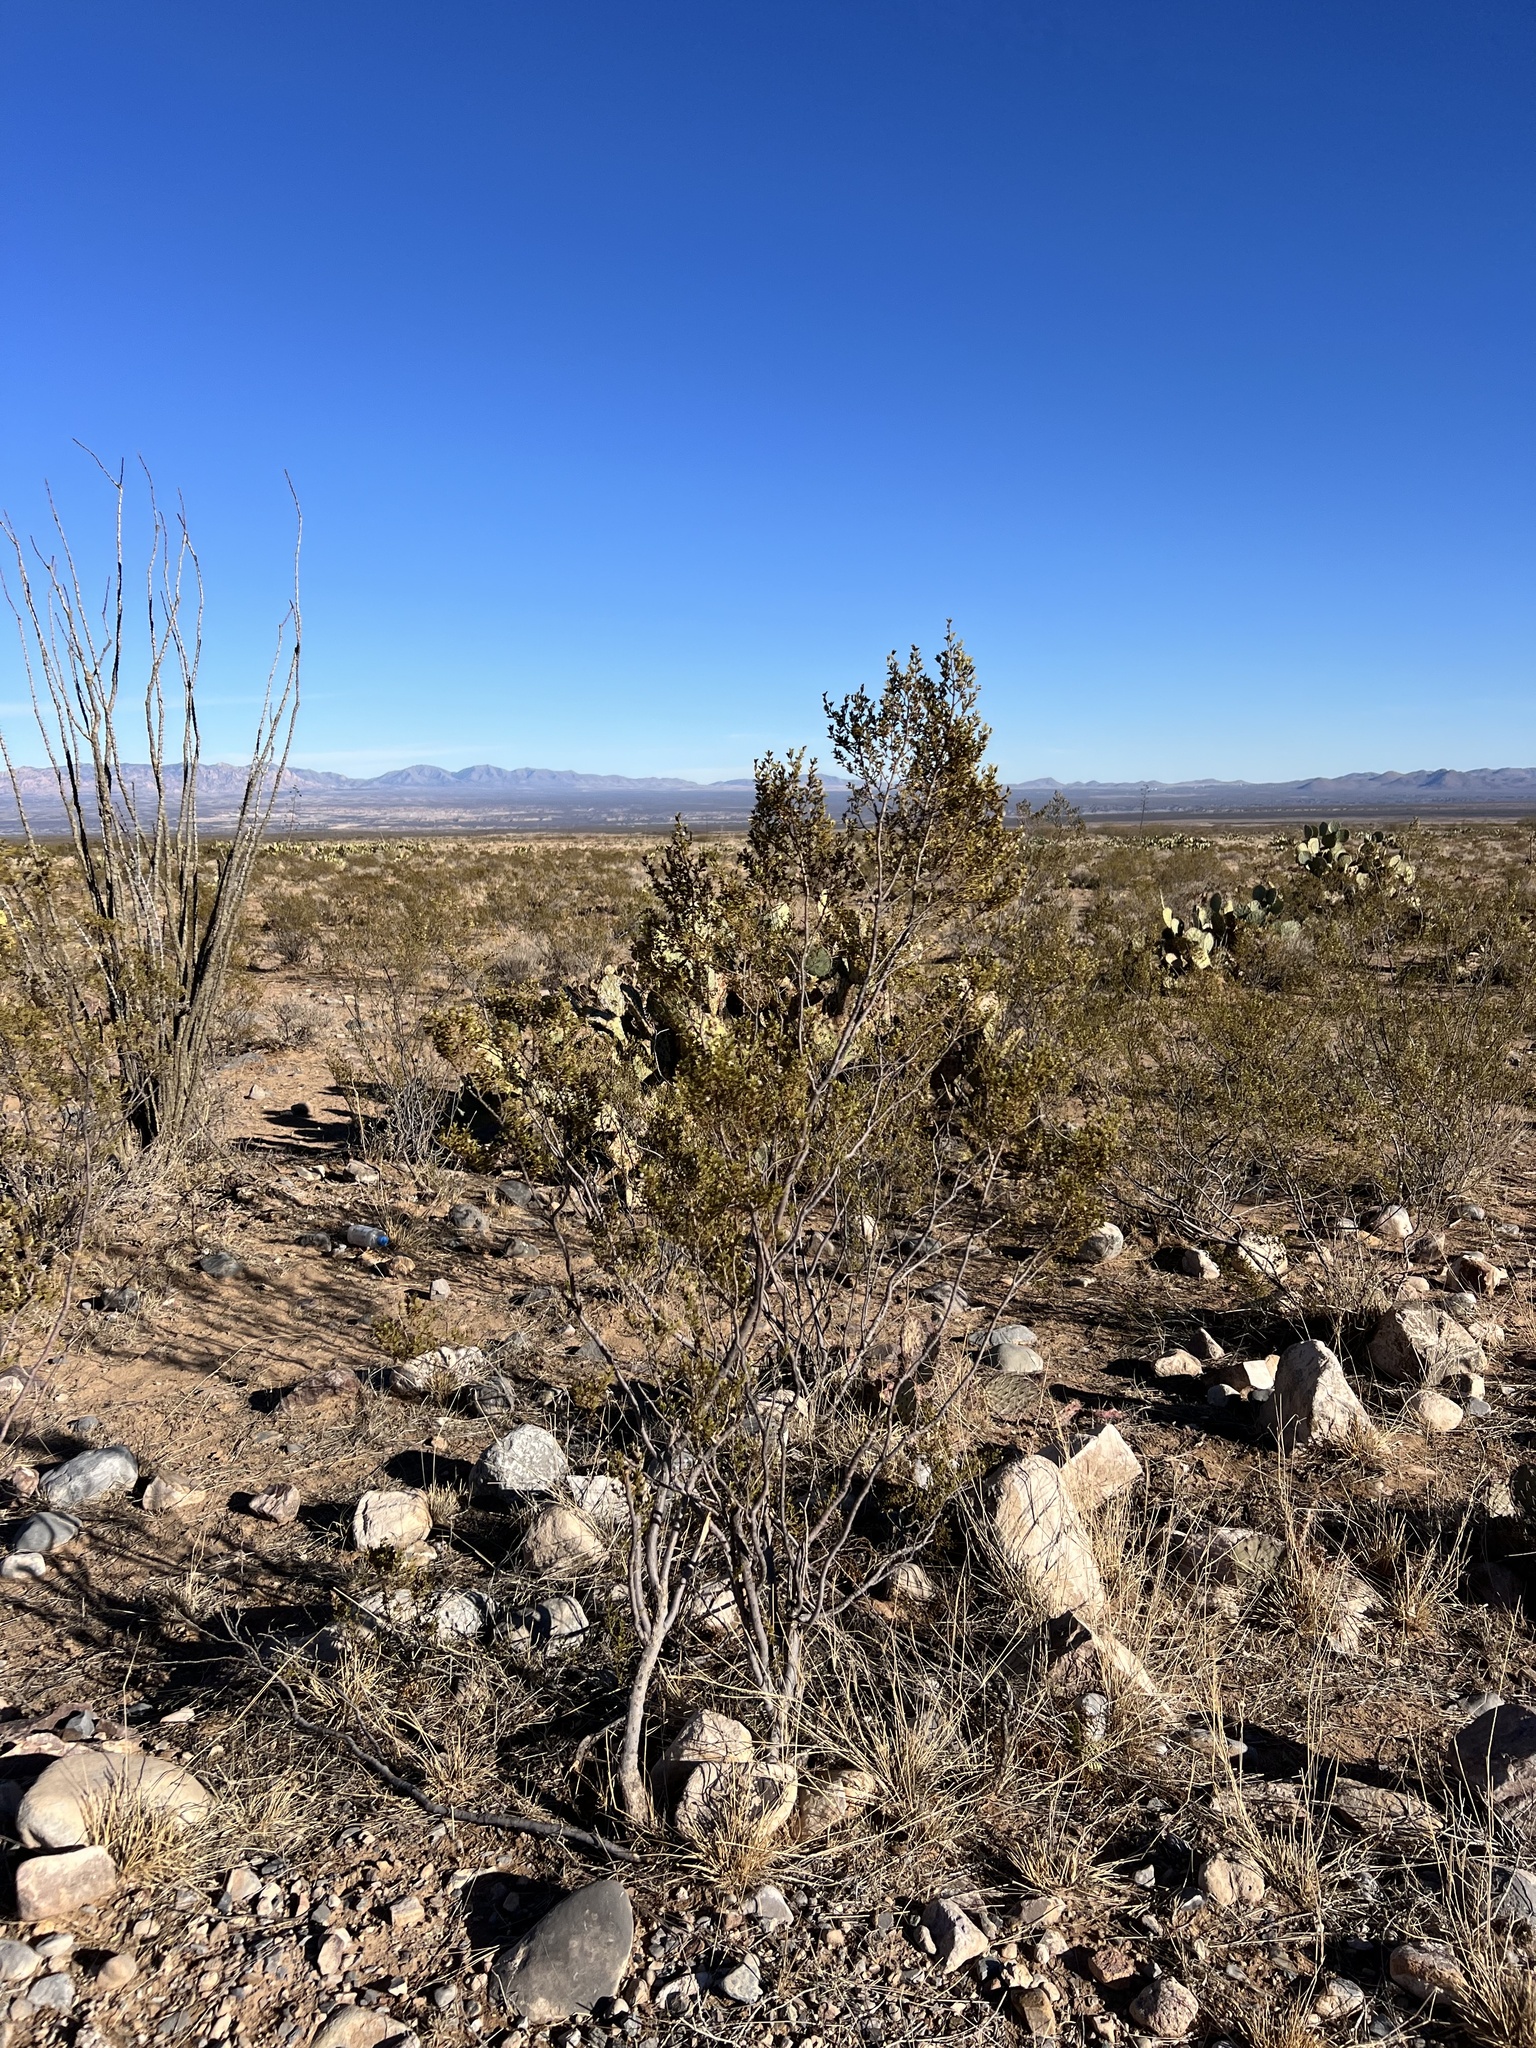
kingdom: Plantae
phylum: Tracheophyta
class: Magnoliopsida
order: Zygophyllales
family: Zygophyllaceae
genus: Larrea
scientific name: Larrea tridentata
